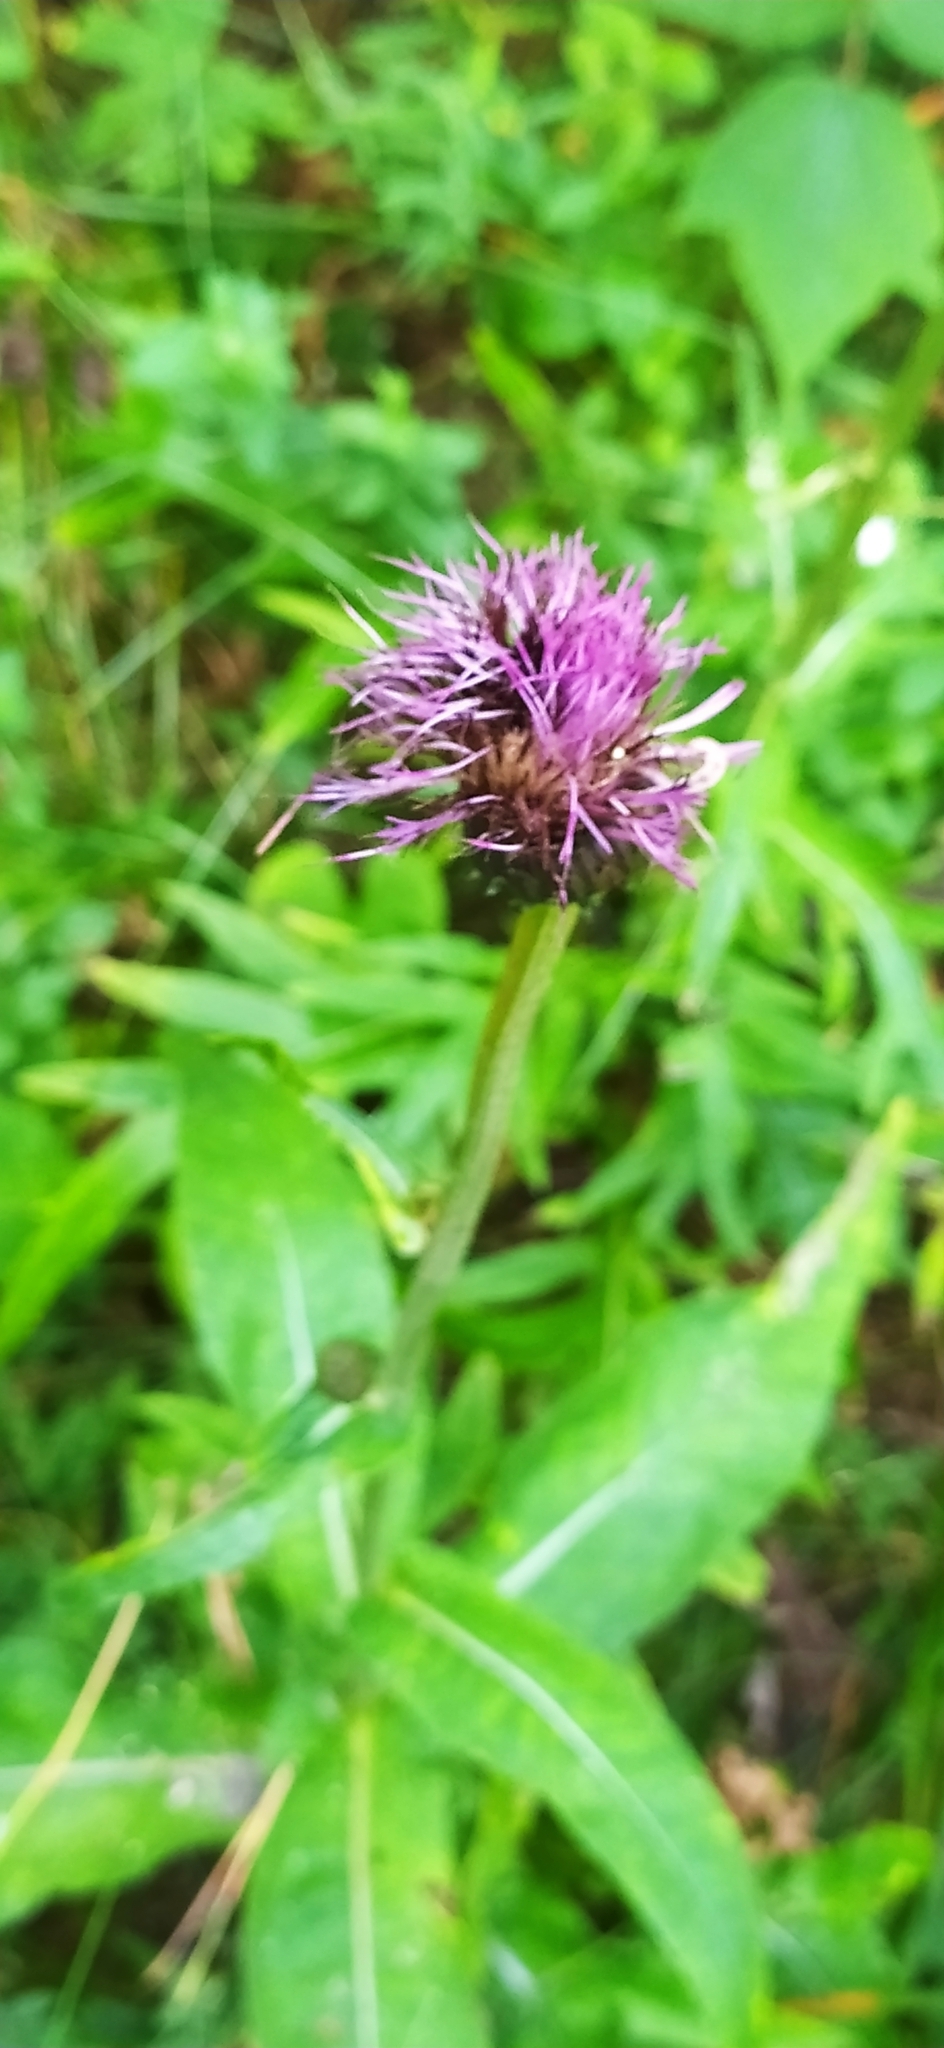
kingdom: Plantae
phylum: Tracheophyta
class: Magnoliopsida
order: Asterales
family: Asteraceae
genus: Cirsium
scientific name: Cirsium heterophyllum
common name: Melancholy thistle
